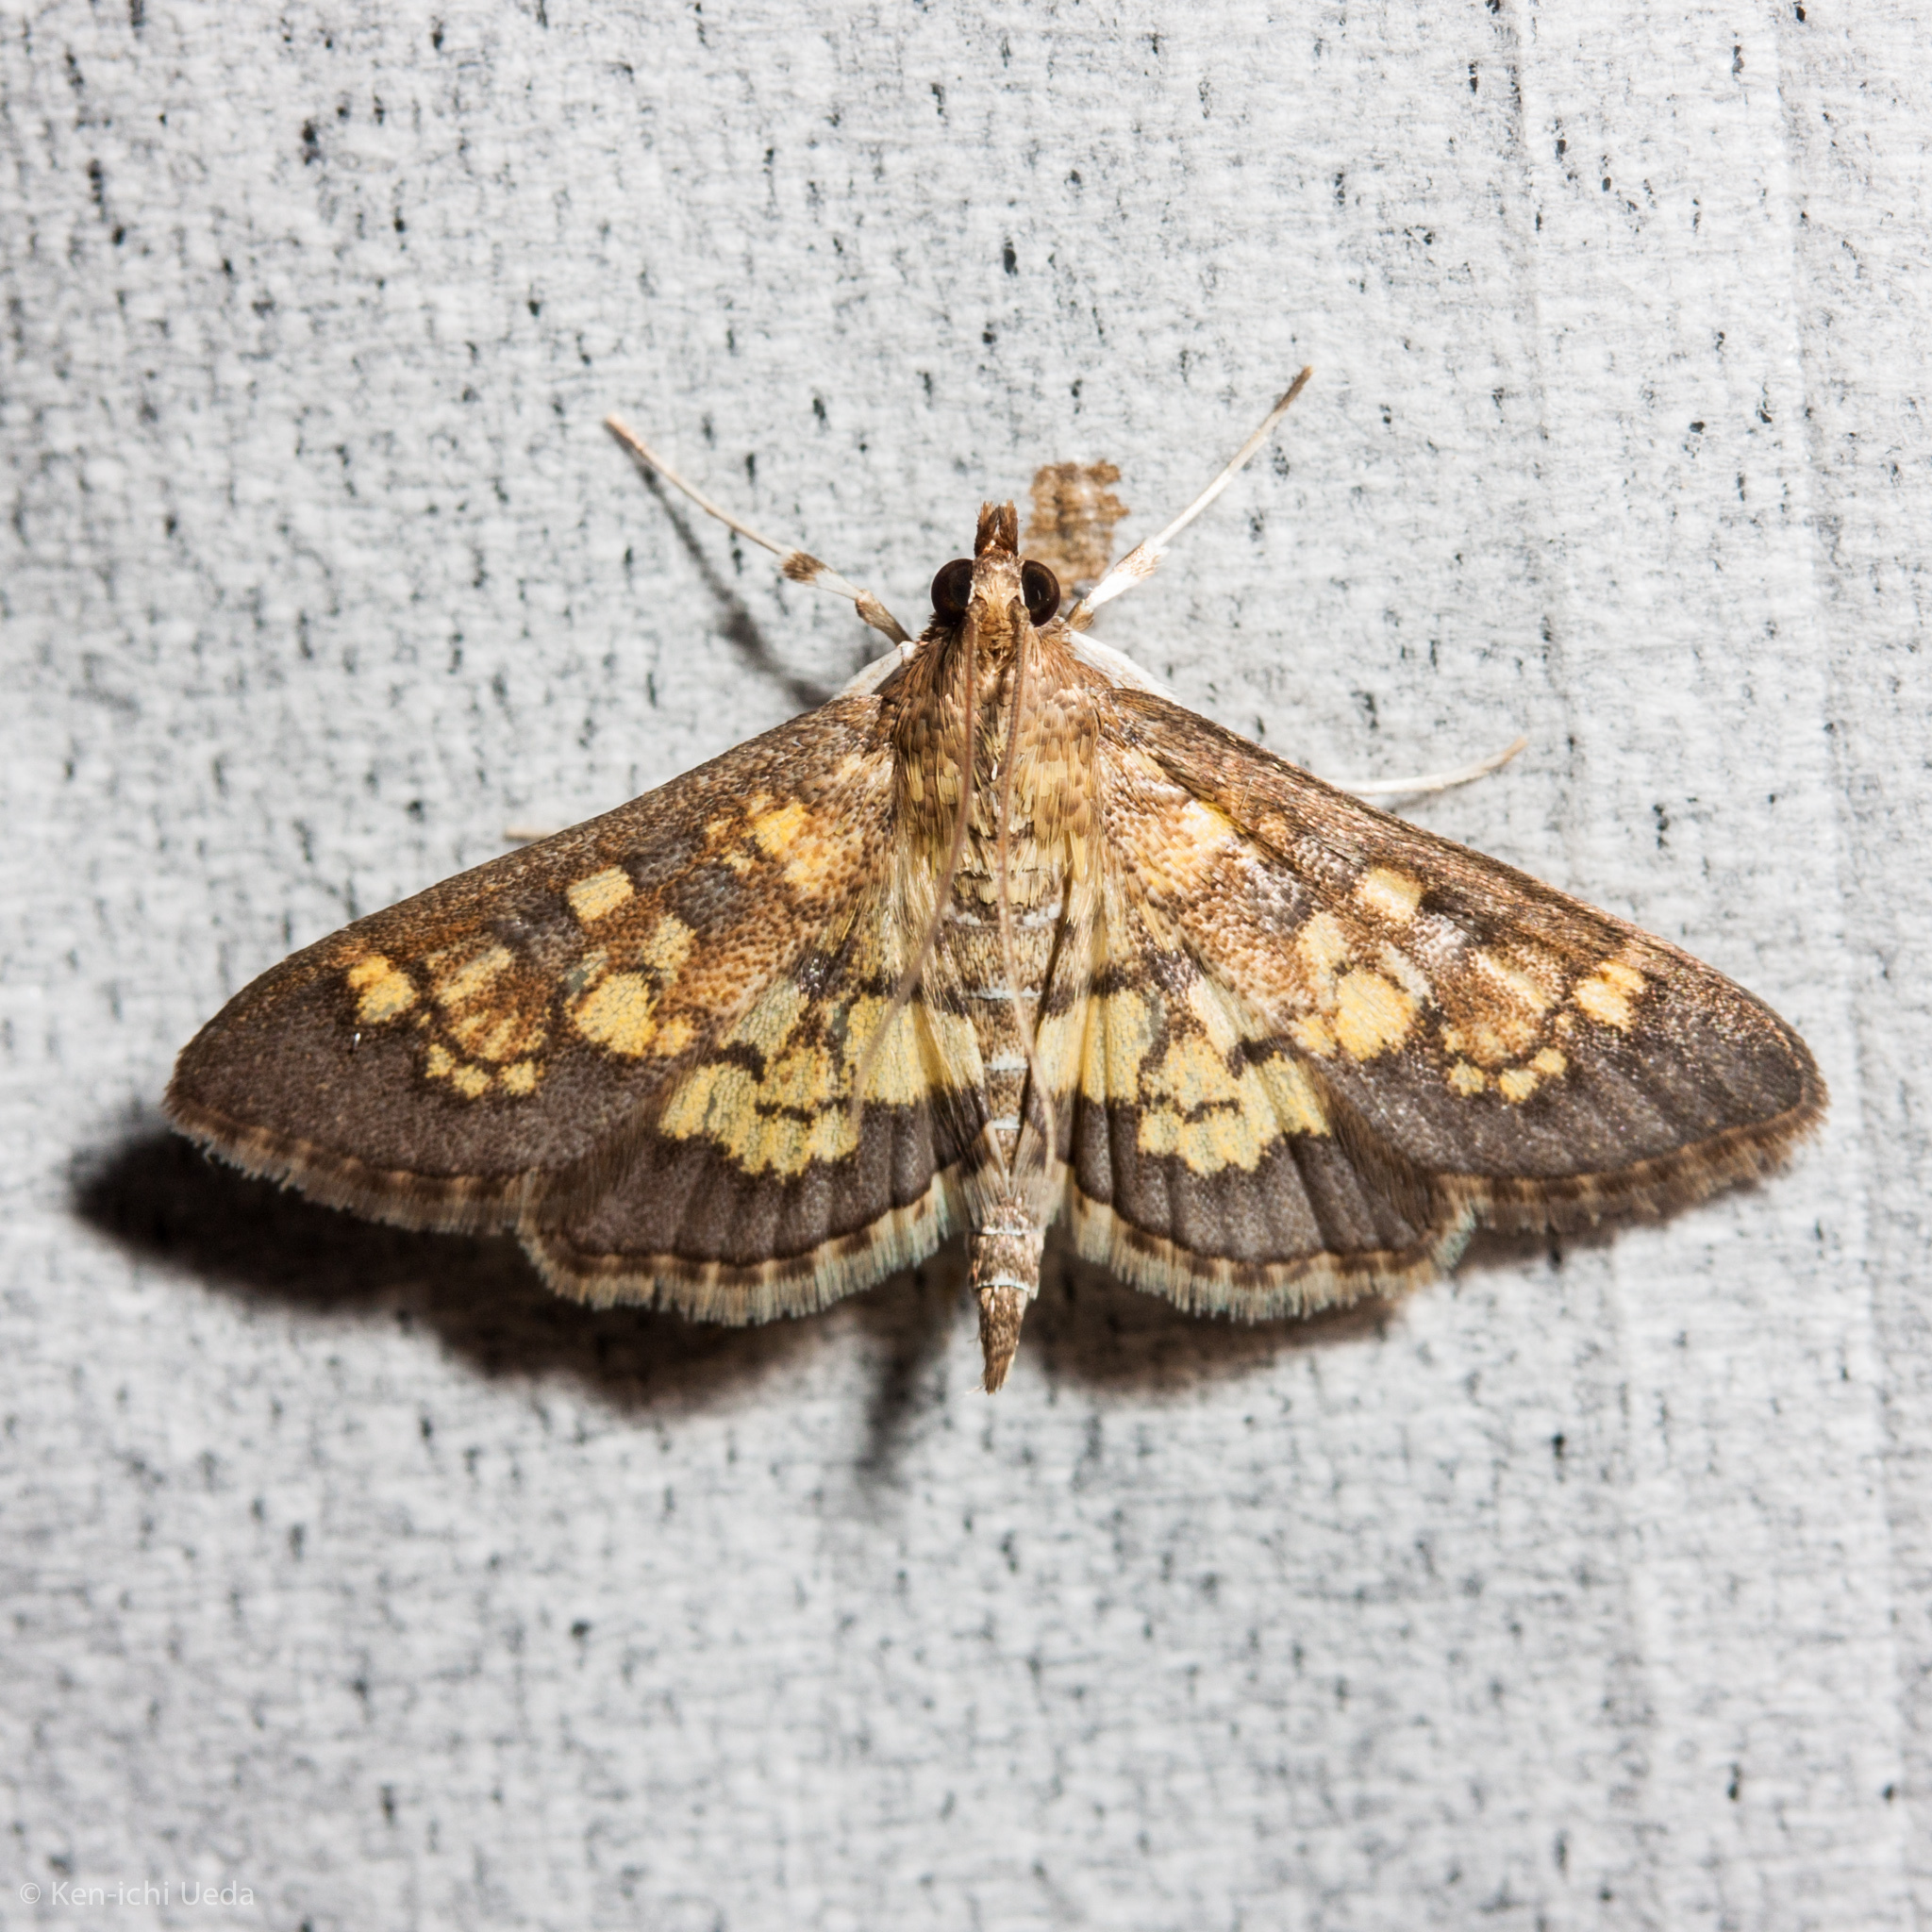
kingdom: Animalia
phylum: Arthropoda
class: Insecta
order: Lepidoptera
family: Crambidae
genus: Epipagis
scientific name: Epipagis adipaloides
